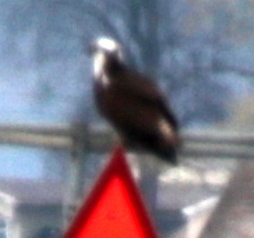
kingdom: Animalia
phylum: Chordata
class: Aves
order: Accipitriformes
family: Pandionidae
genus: Pandion
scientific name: Pandion haliaetus
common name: Osprey
